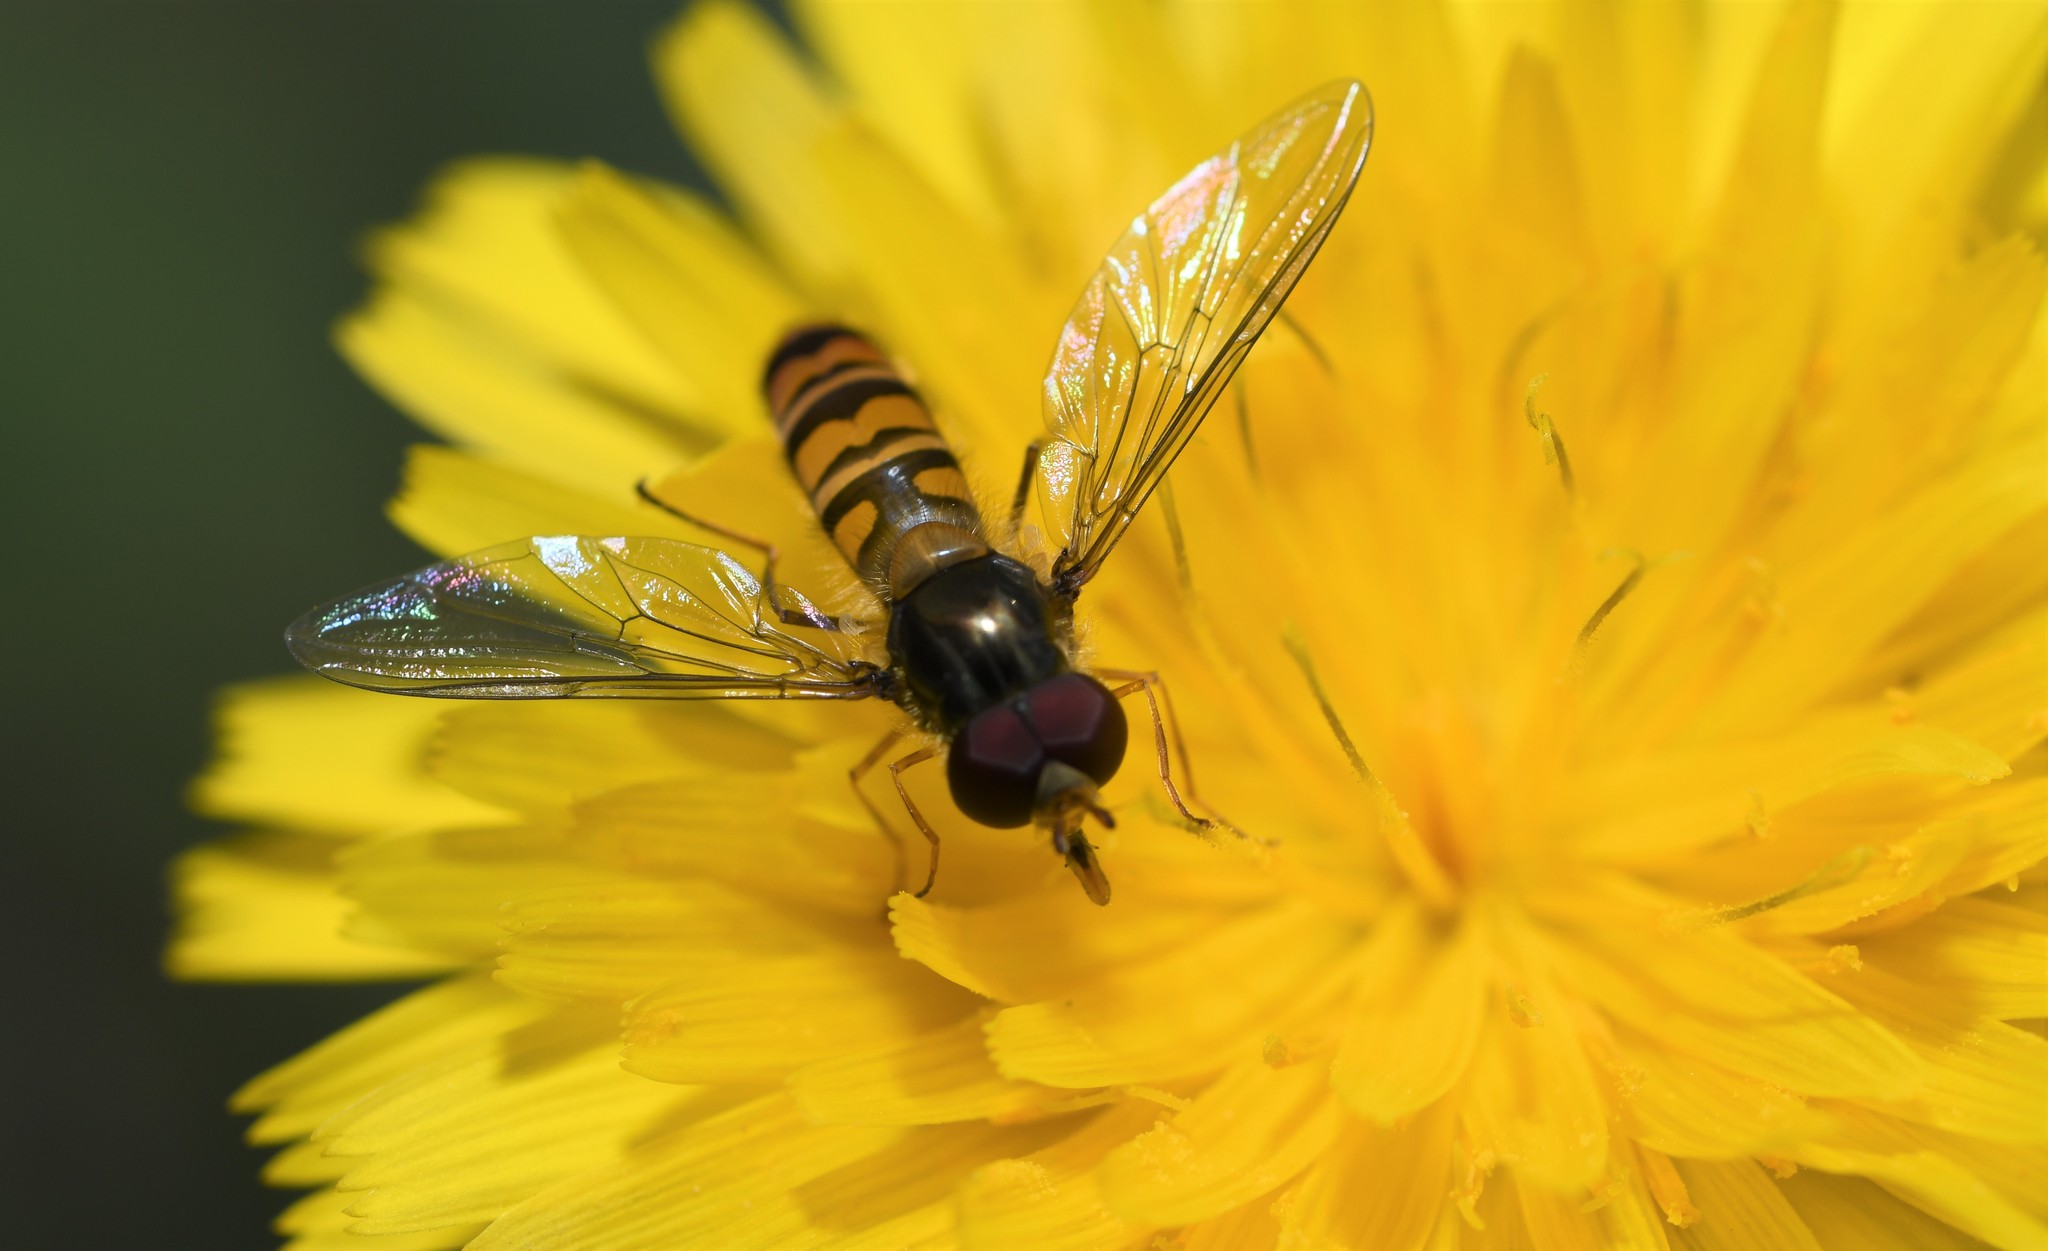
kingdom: Animalia
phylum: Arthropoda
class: Insecta
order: Diptera
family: Syrphidae
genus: Episyrphus
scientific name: Episyrphus balteatus
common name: Marmalade hoverfly
